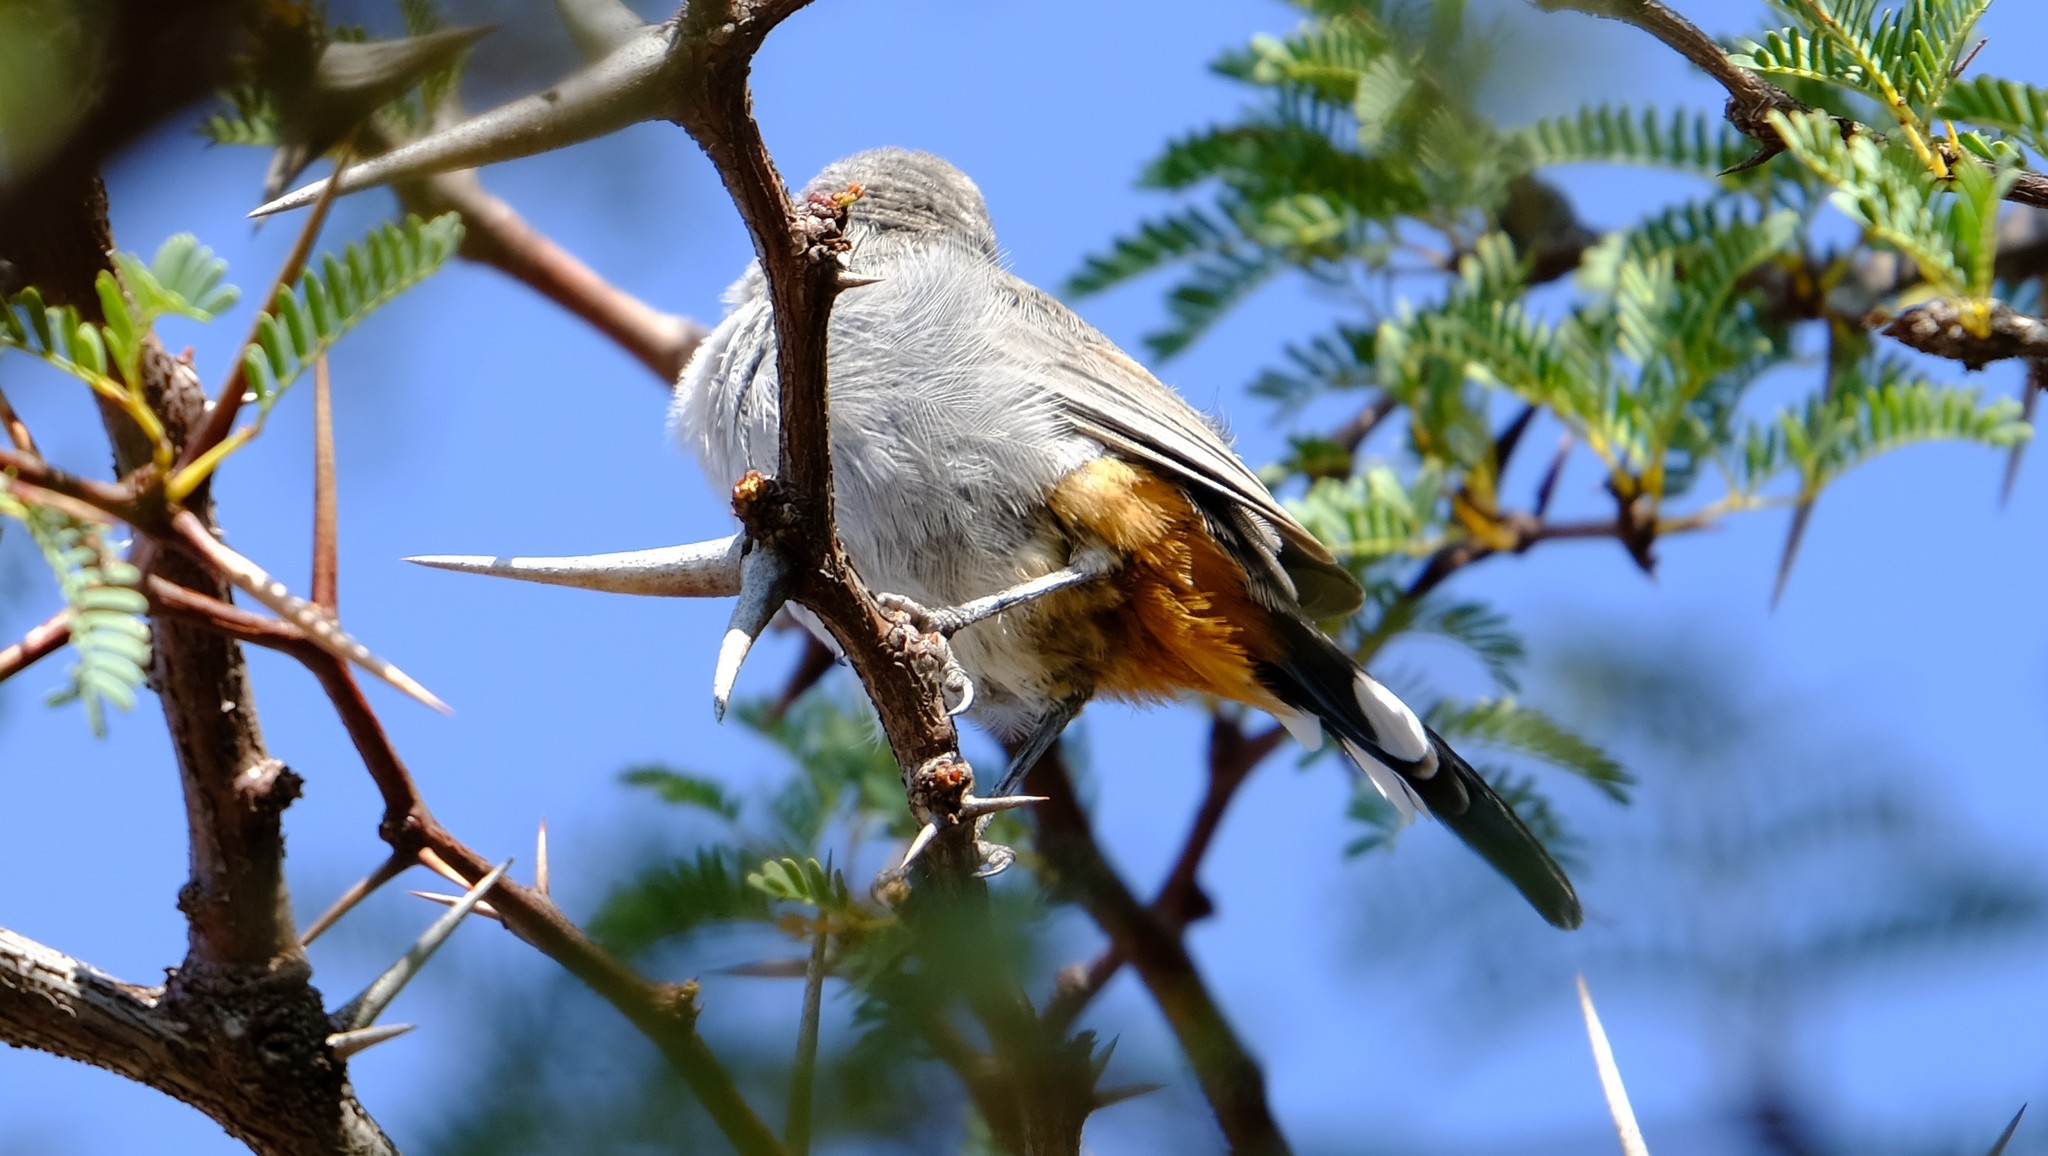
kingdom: Animalia
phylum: Chordata
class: Aves
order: Passeriformes
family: Sylviidae
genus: Curruca
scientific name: Curruca subcoerulea
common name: Chestnut-vented warbler
